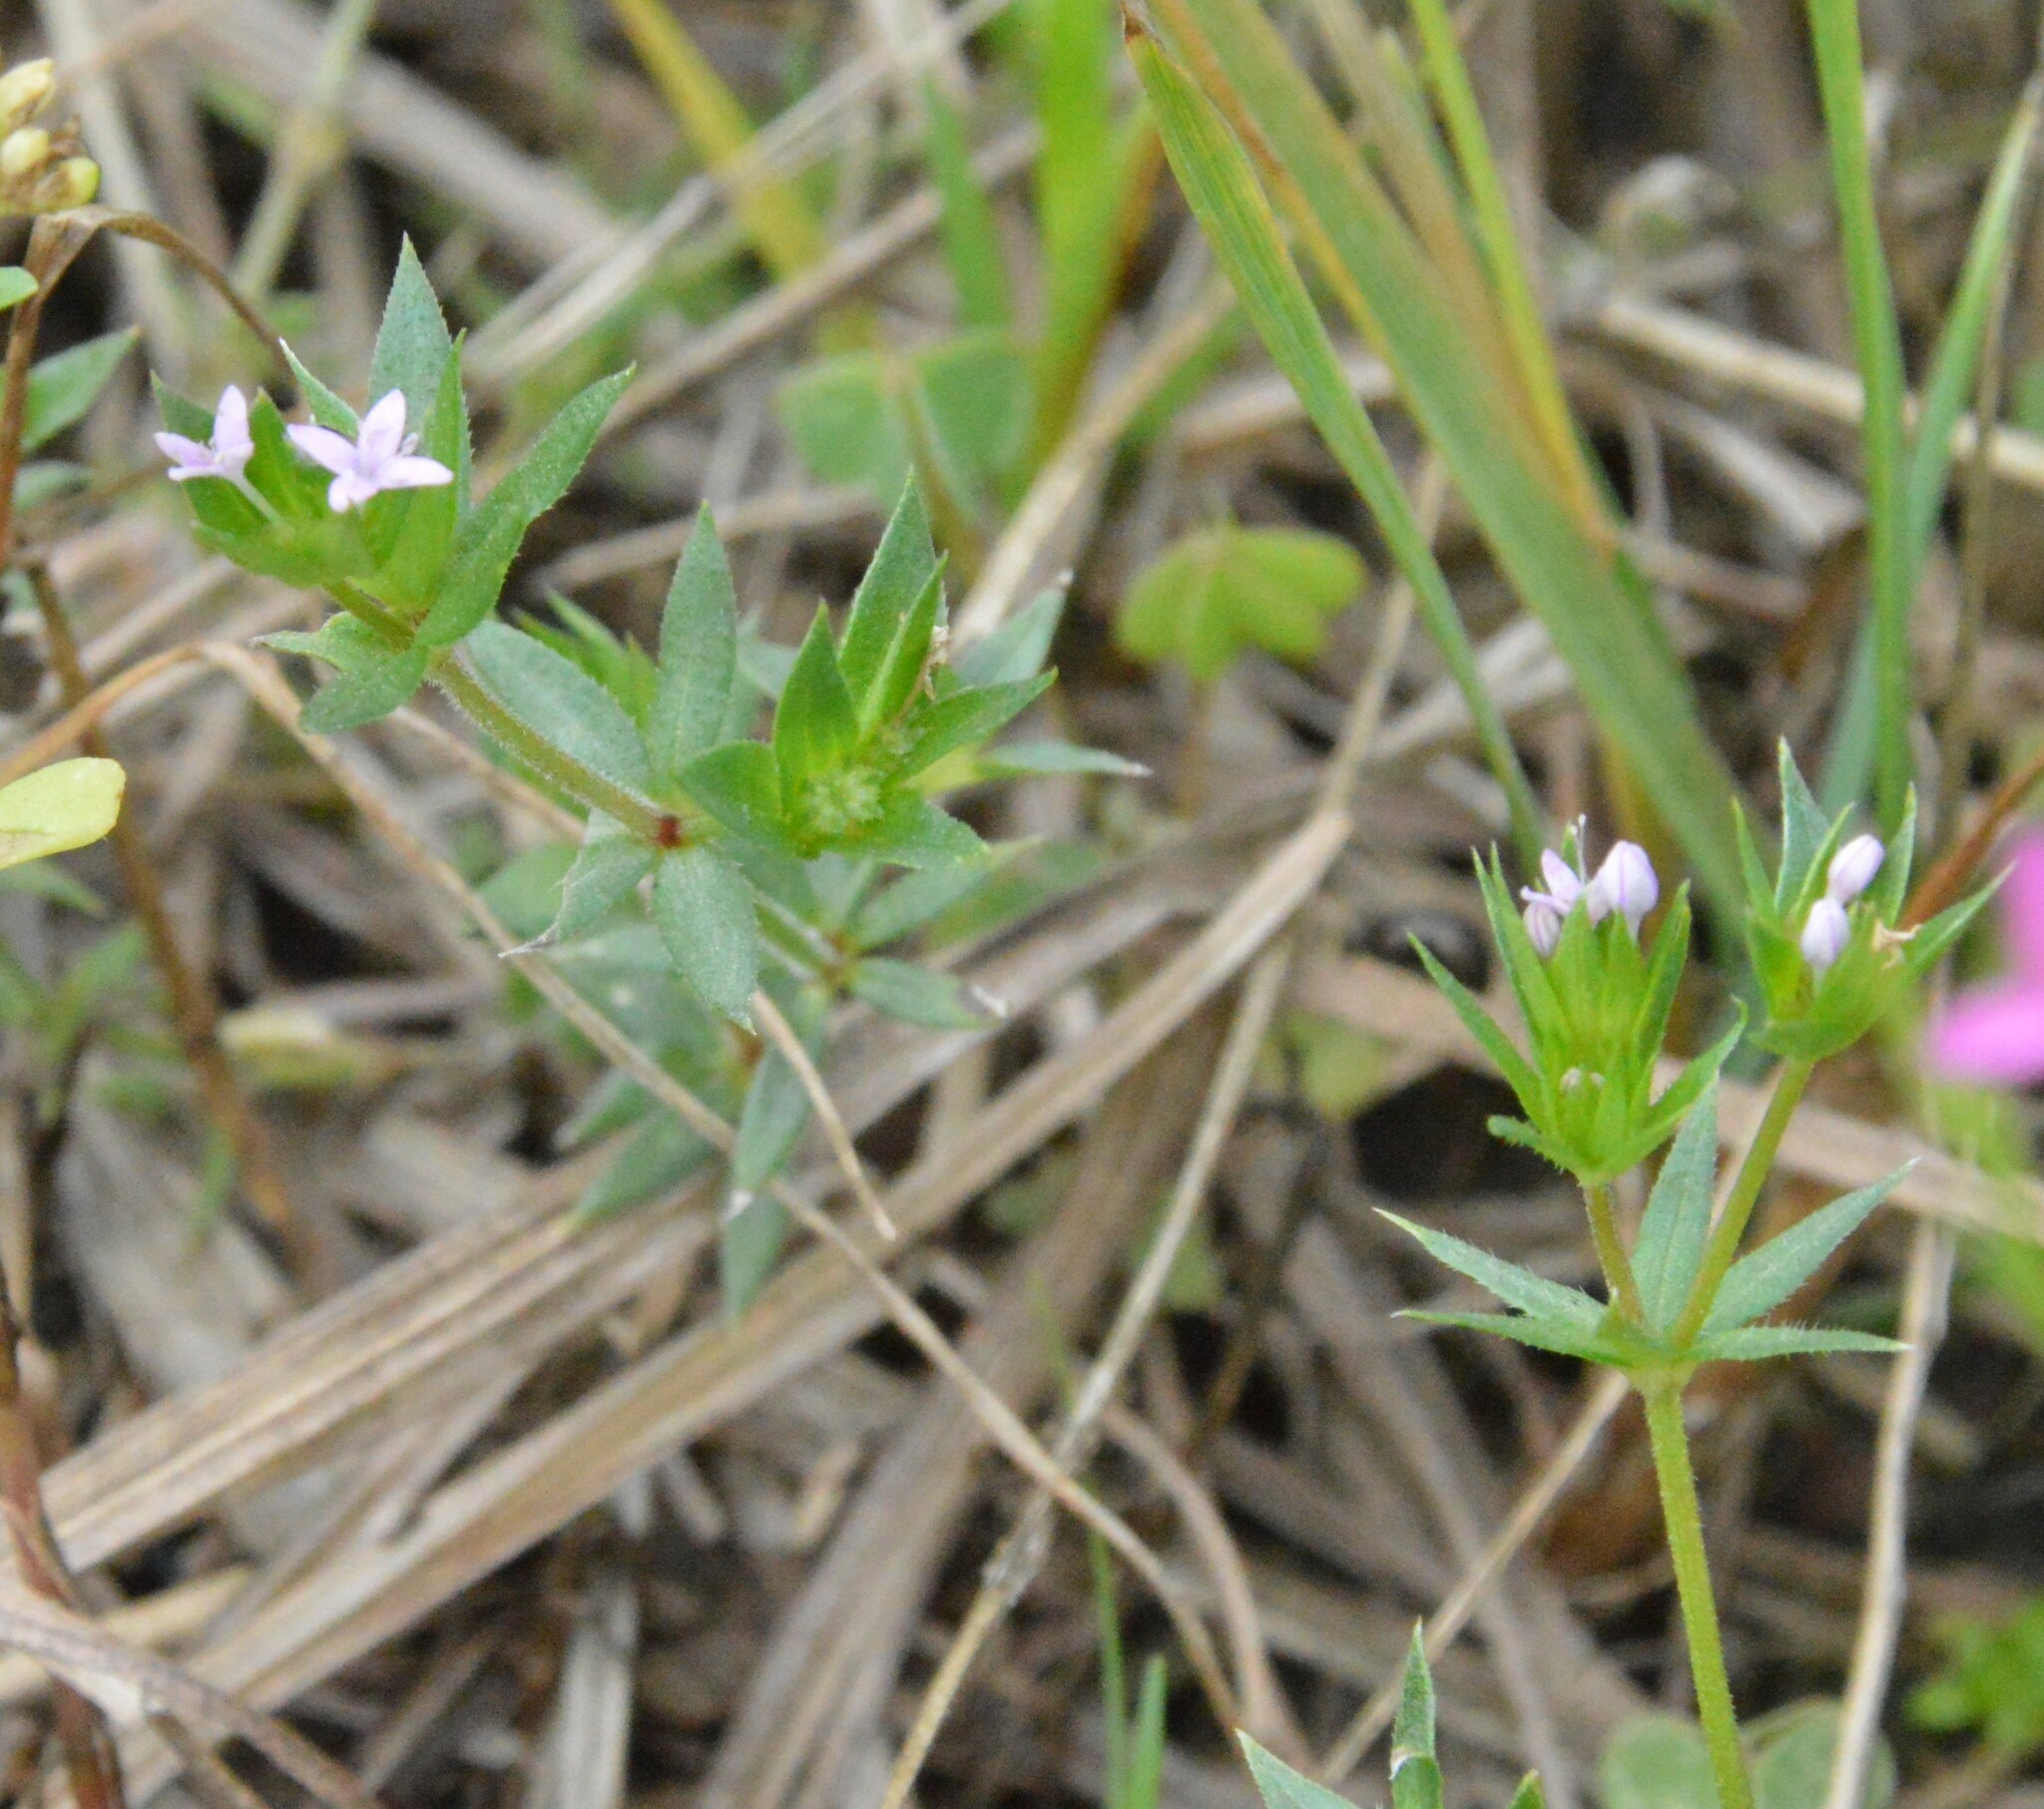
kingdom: Plantae
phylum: Tracheophyta
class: Magnoliopsida
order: Gentianales
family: Rubiaceae
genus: Sherardia
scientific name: Sherardia arvensis
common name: Field madder
